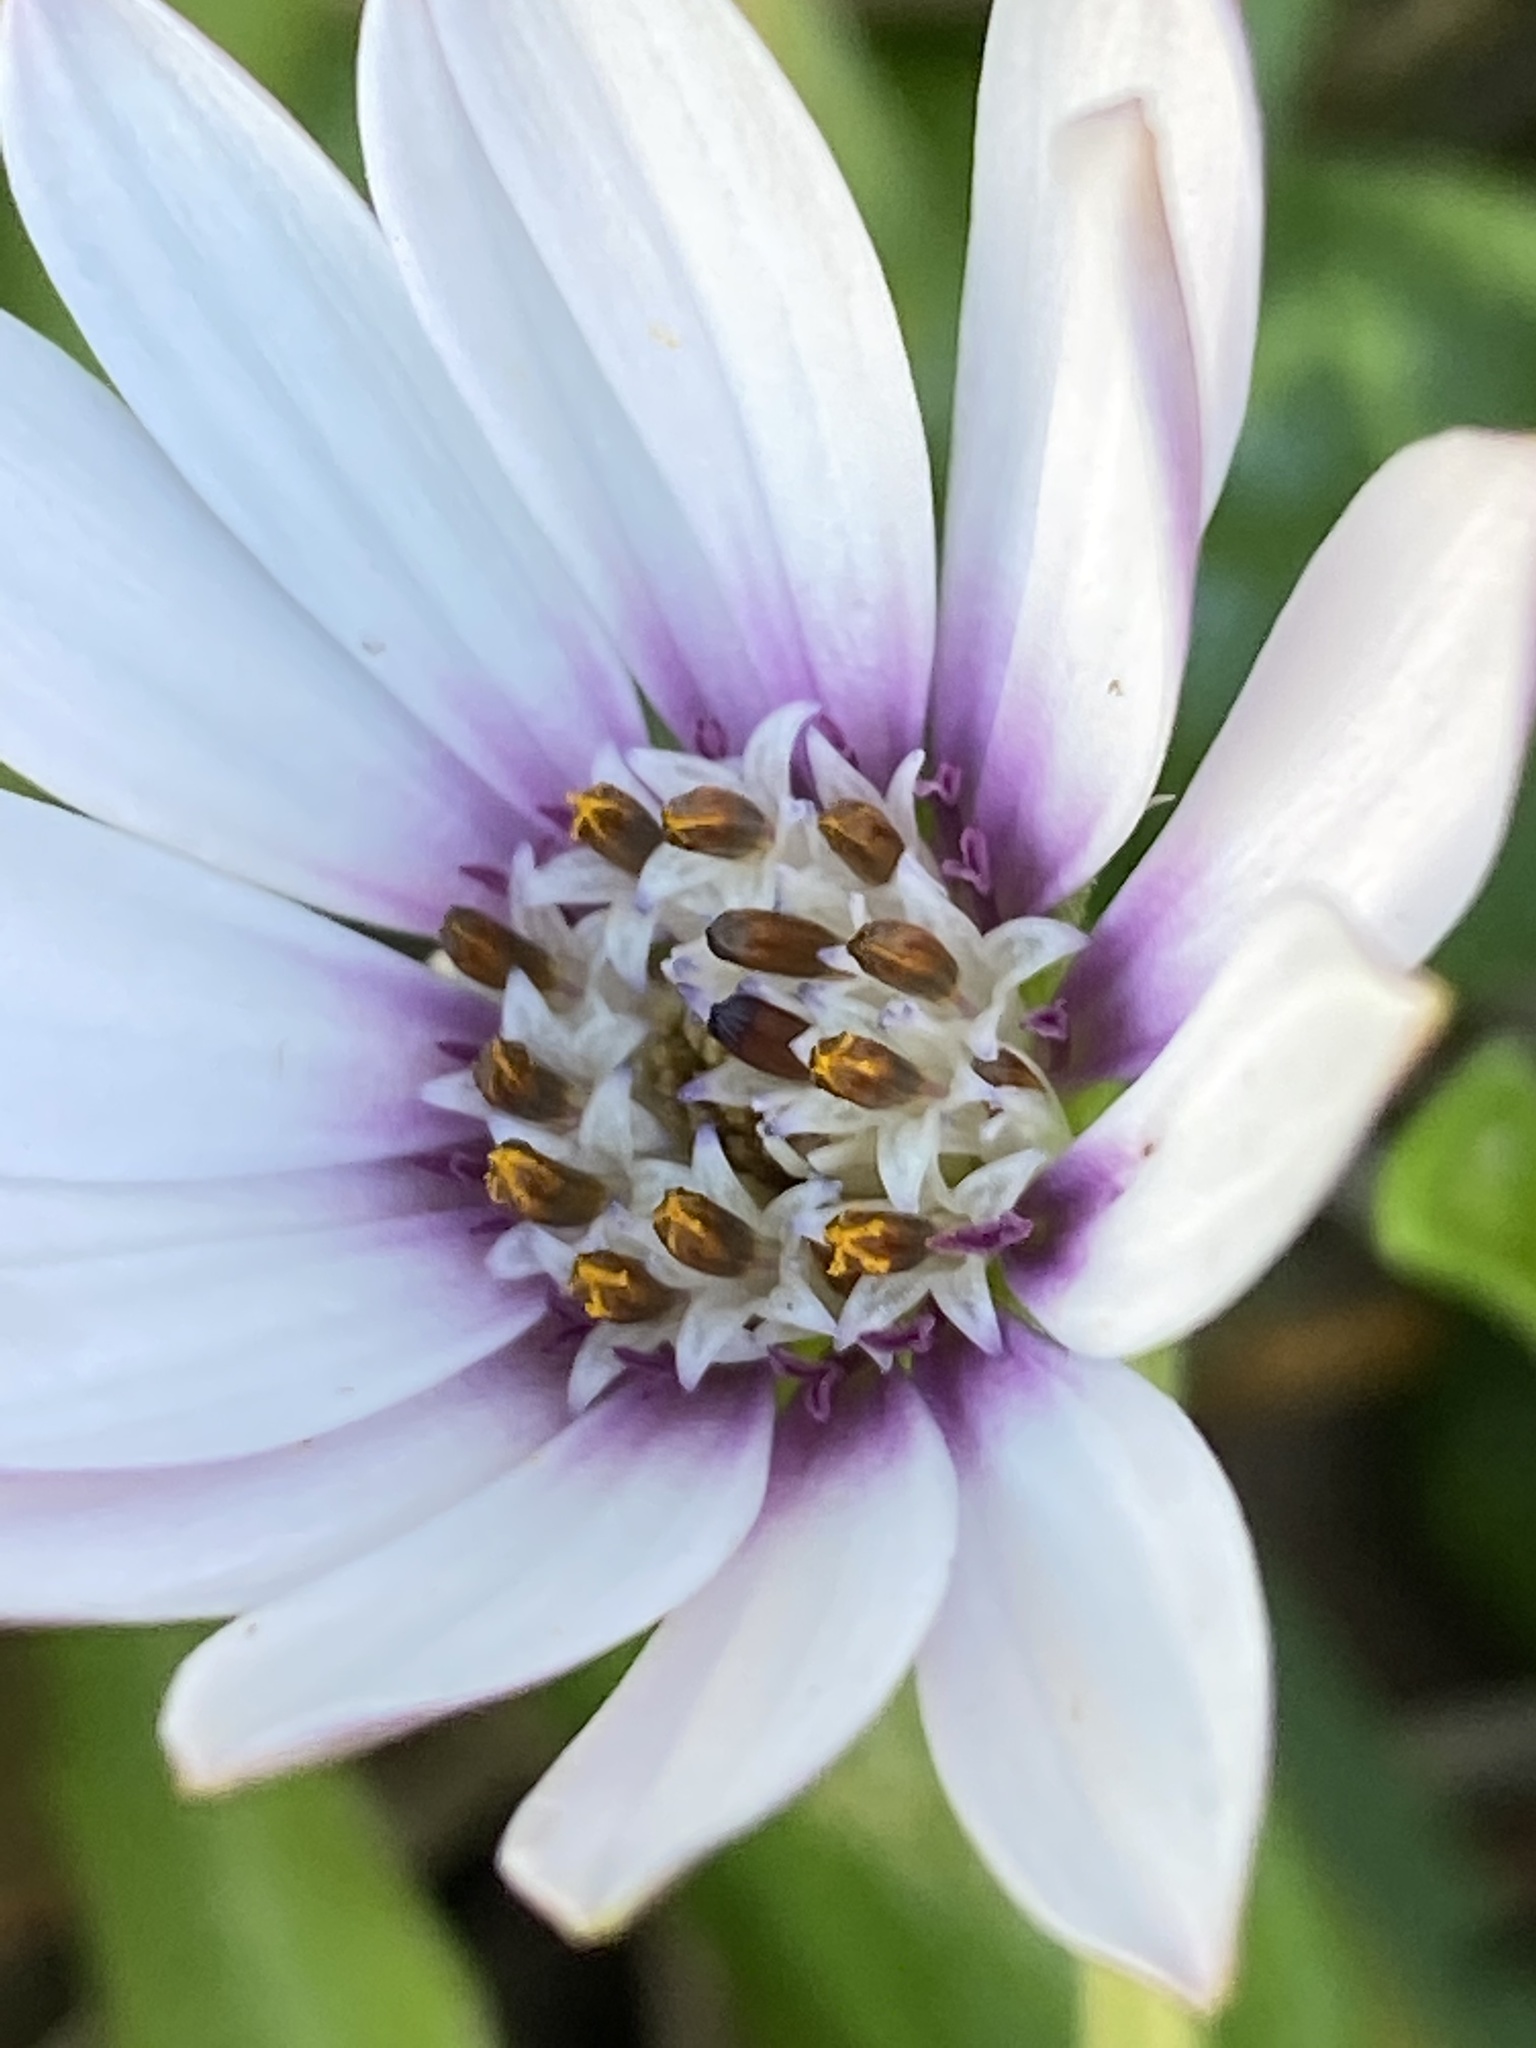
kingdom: Plantae
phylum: Tracheophyta
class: Magnoliopsida
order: Asterales
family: Asteraceae
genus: Dimorphotheca
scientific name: Dimorphotheca fruticosa
